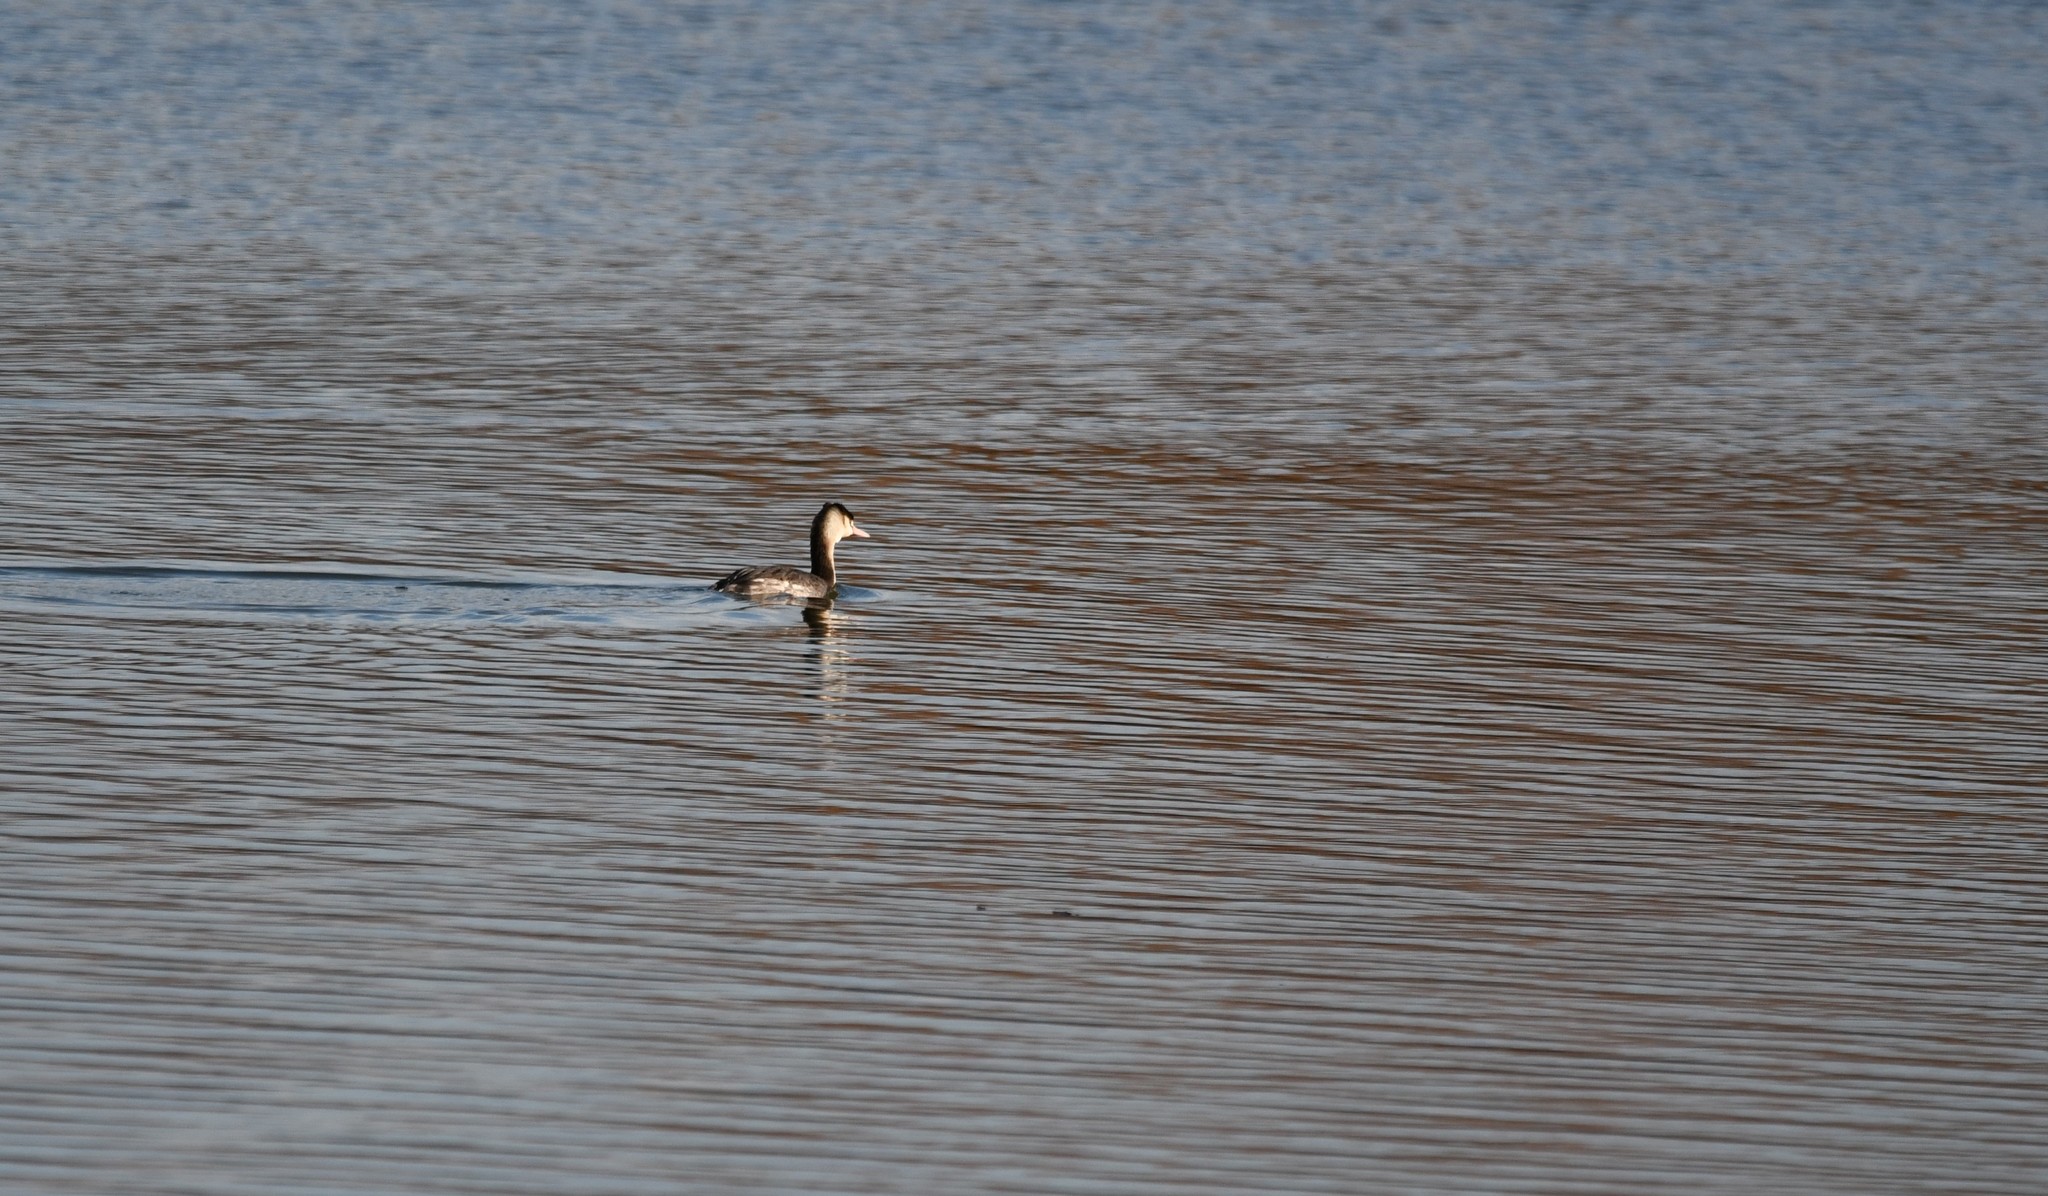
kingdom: Animalia
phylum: Chordata
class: Aves
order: Podicipediformes
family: Podicipedidae
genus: Podiceps
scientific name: Podiceps cristatus
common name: Great crested grebe
